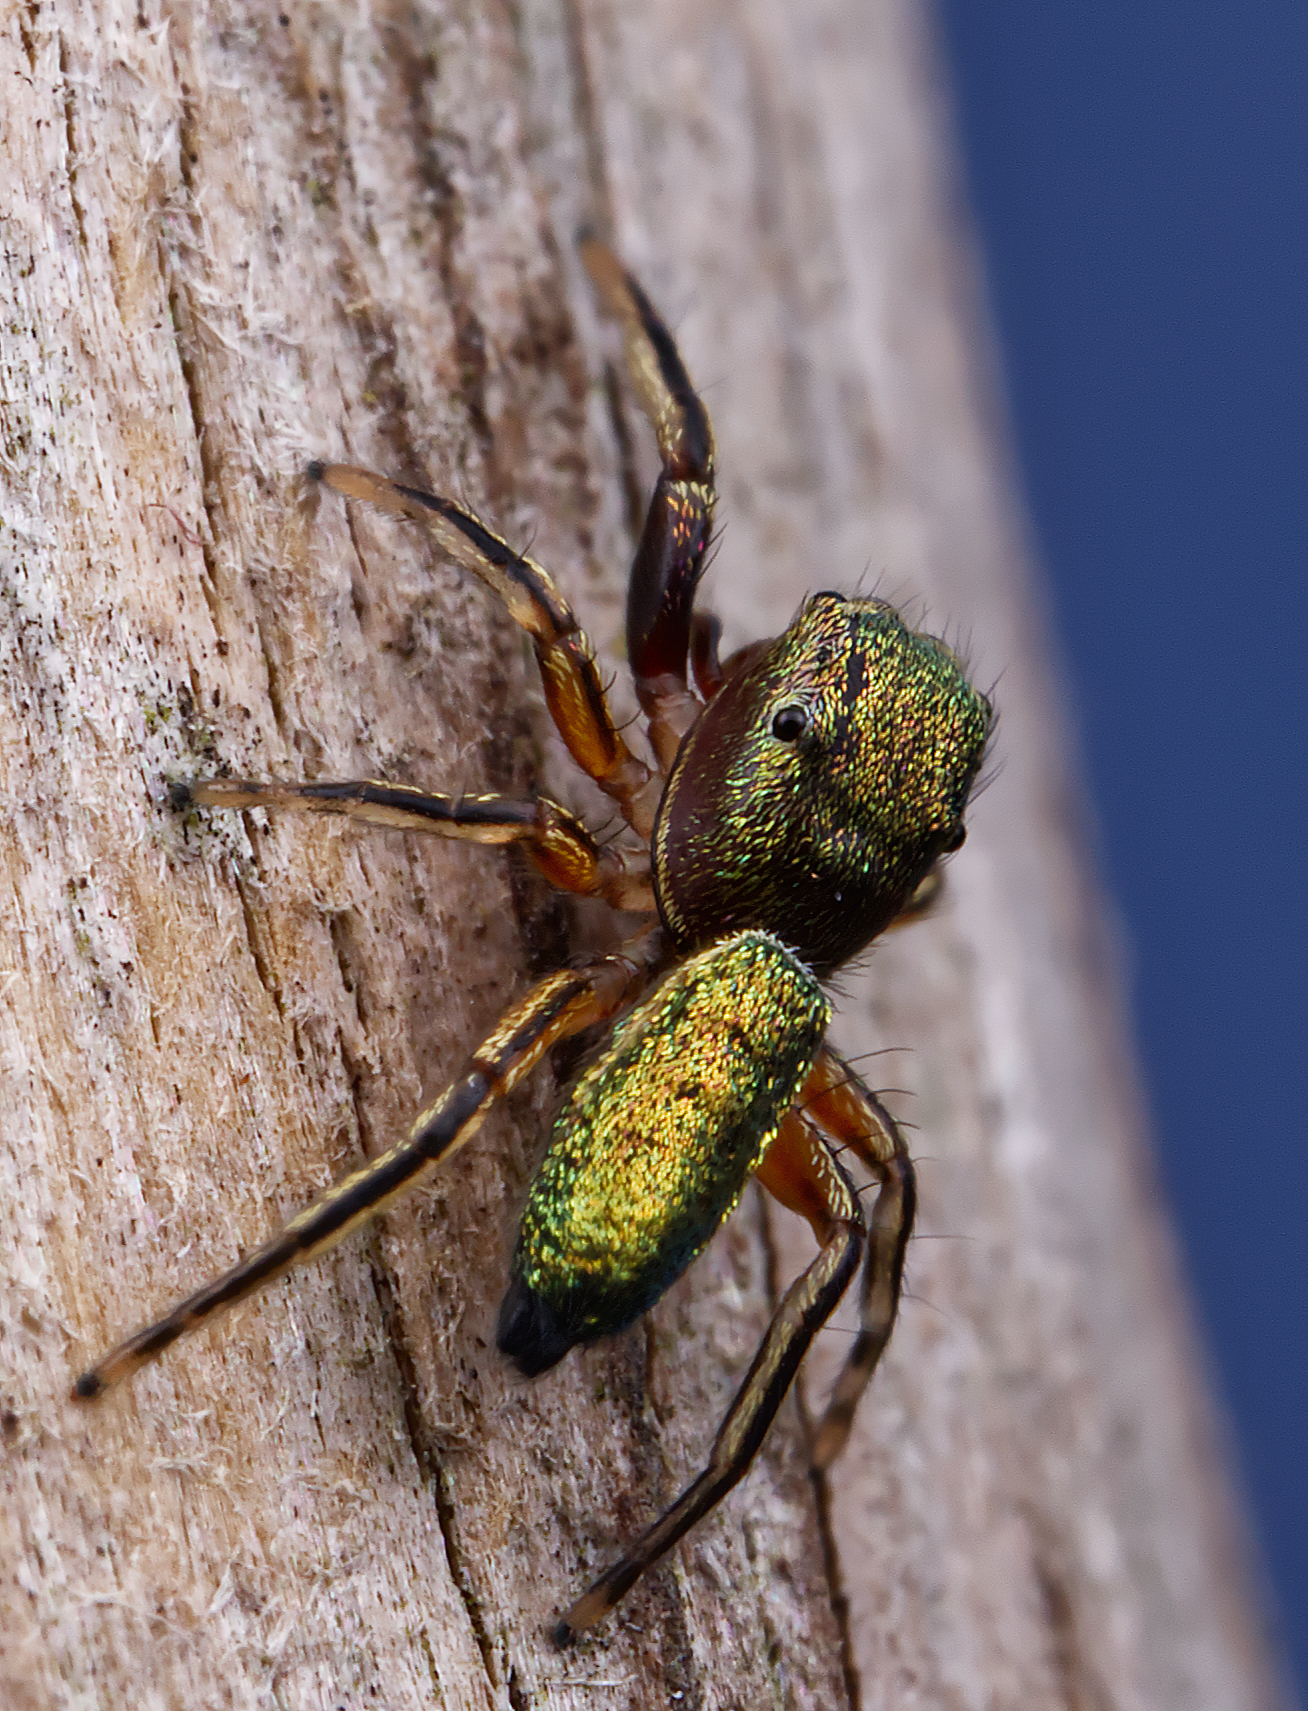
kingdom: Animalia
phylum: Arthropoda
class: Arachnida
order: Araneae
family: Salticidae
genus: Tutelina
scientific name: Tutelina elegans
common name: Thin-spined jumping spider
